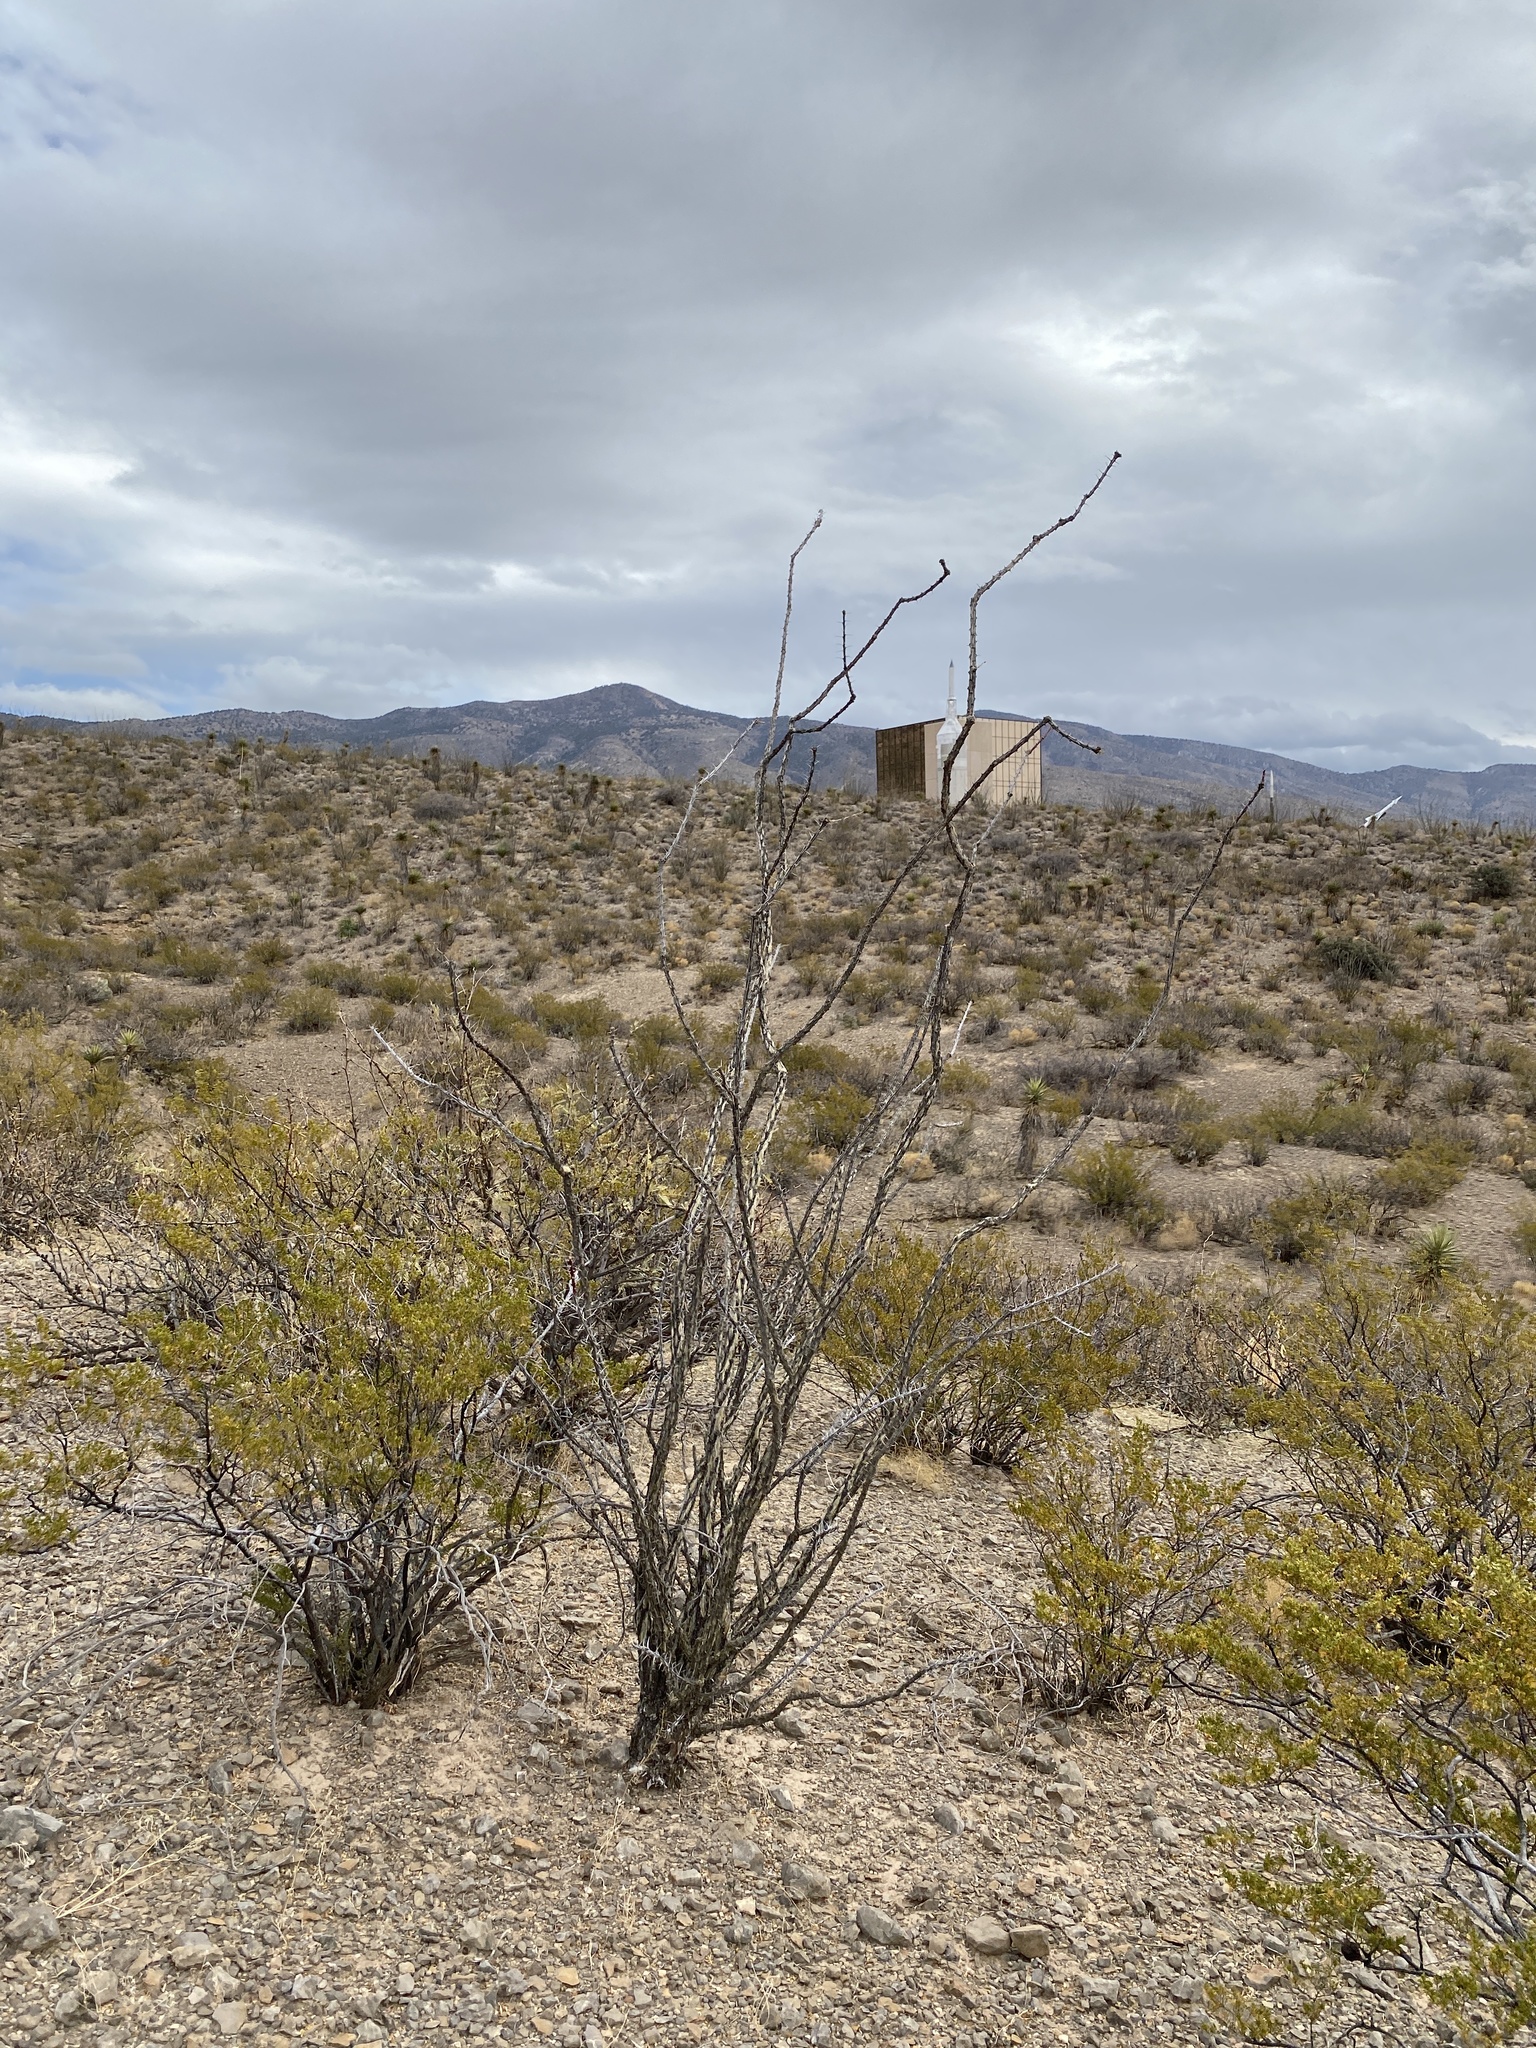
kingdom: Plantae
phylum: Tracheophyta
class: Magnoliopsida
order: Ericales
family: Fouquieriaceae
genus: Fouquieria
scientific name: Fouquieria splendens
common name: Vine-cactus
